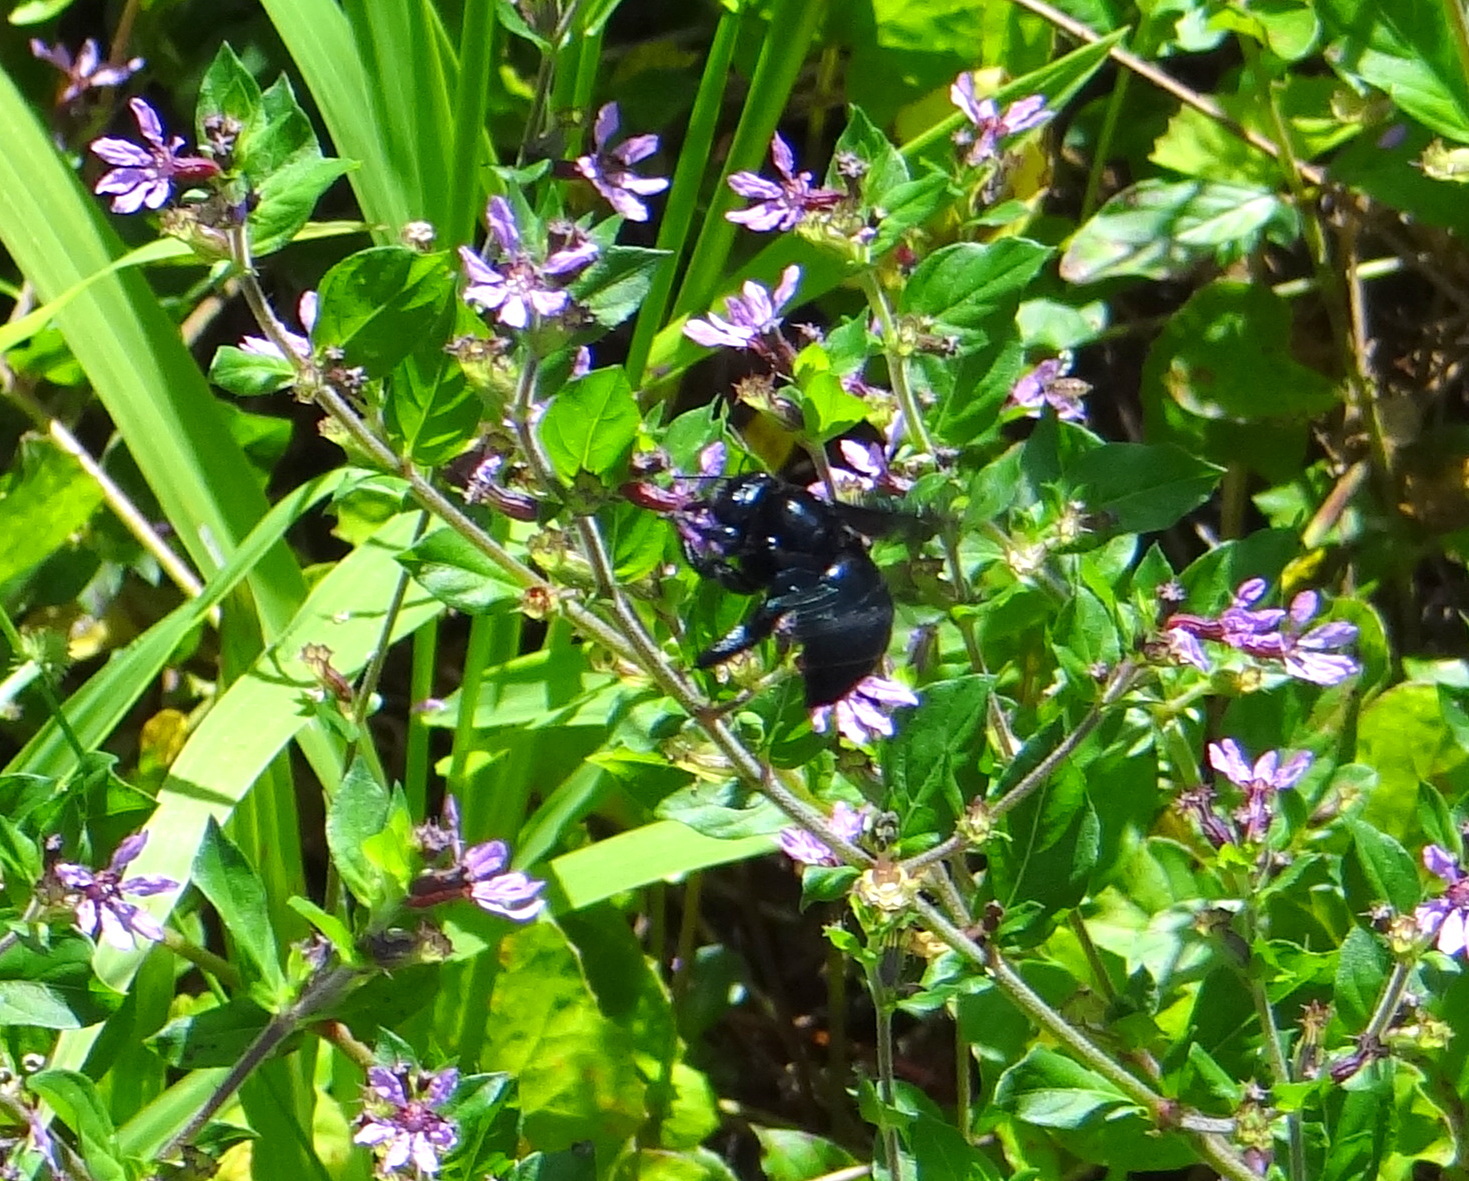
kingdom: Animalia
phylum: Arthropoda
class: Insecta
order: Hymenoptera
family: Apidae
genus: Xylocopa
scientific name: Xylocopa darwini
